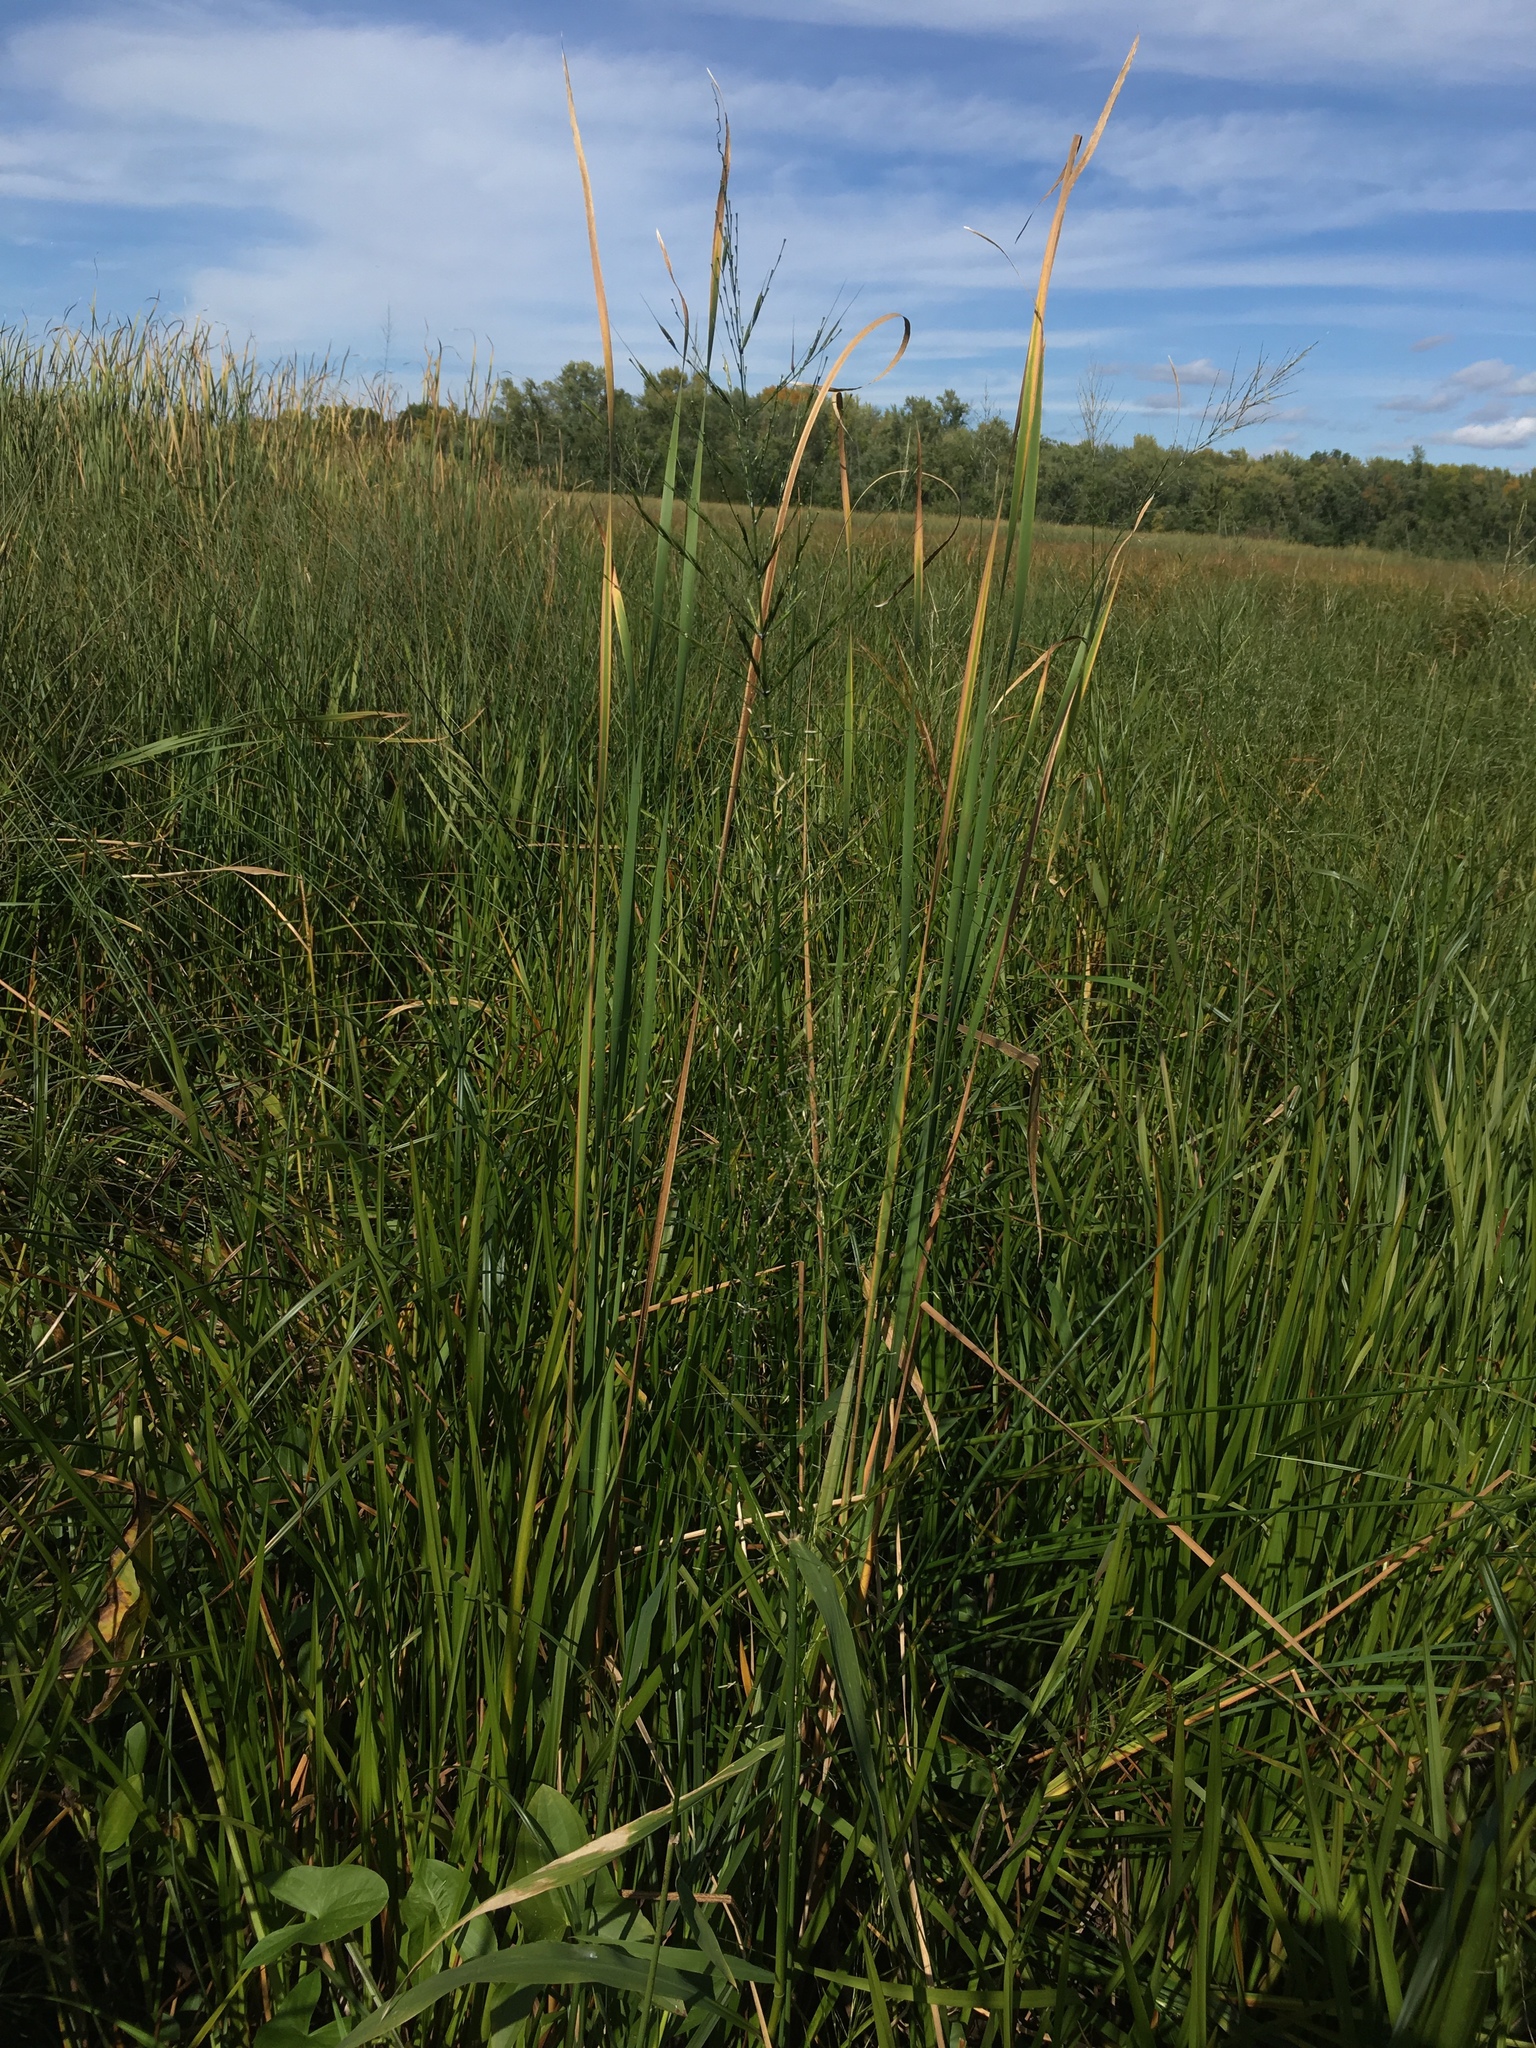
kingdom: Plantae
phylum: Tracheophyta
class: Liliopsida
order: Poales
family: Poaceae
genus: Zizania
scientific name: Zizania aquatica
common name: Annual wildrice
